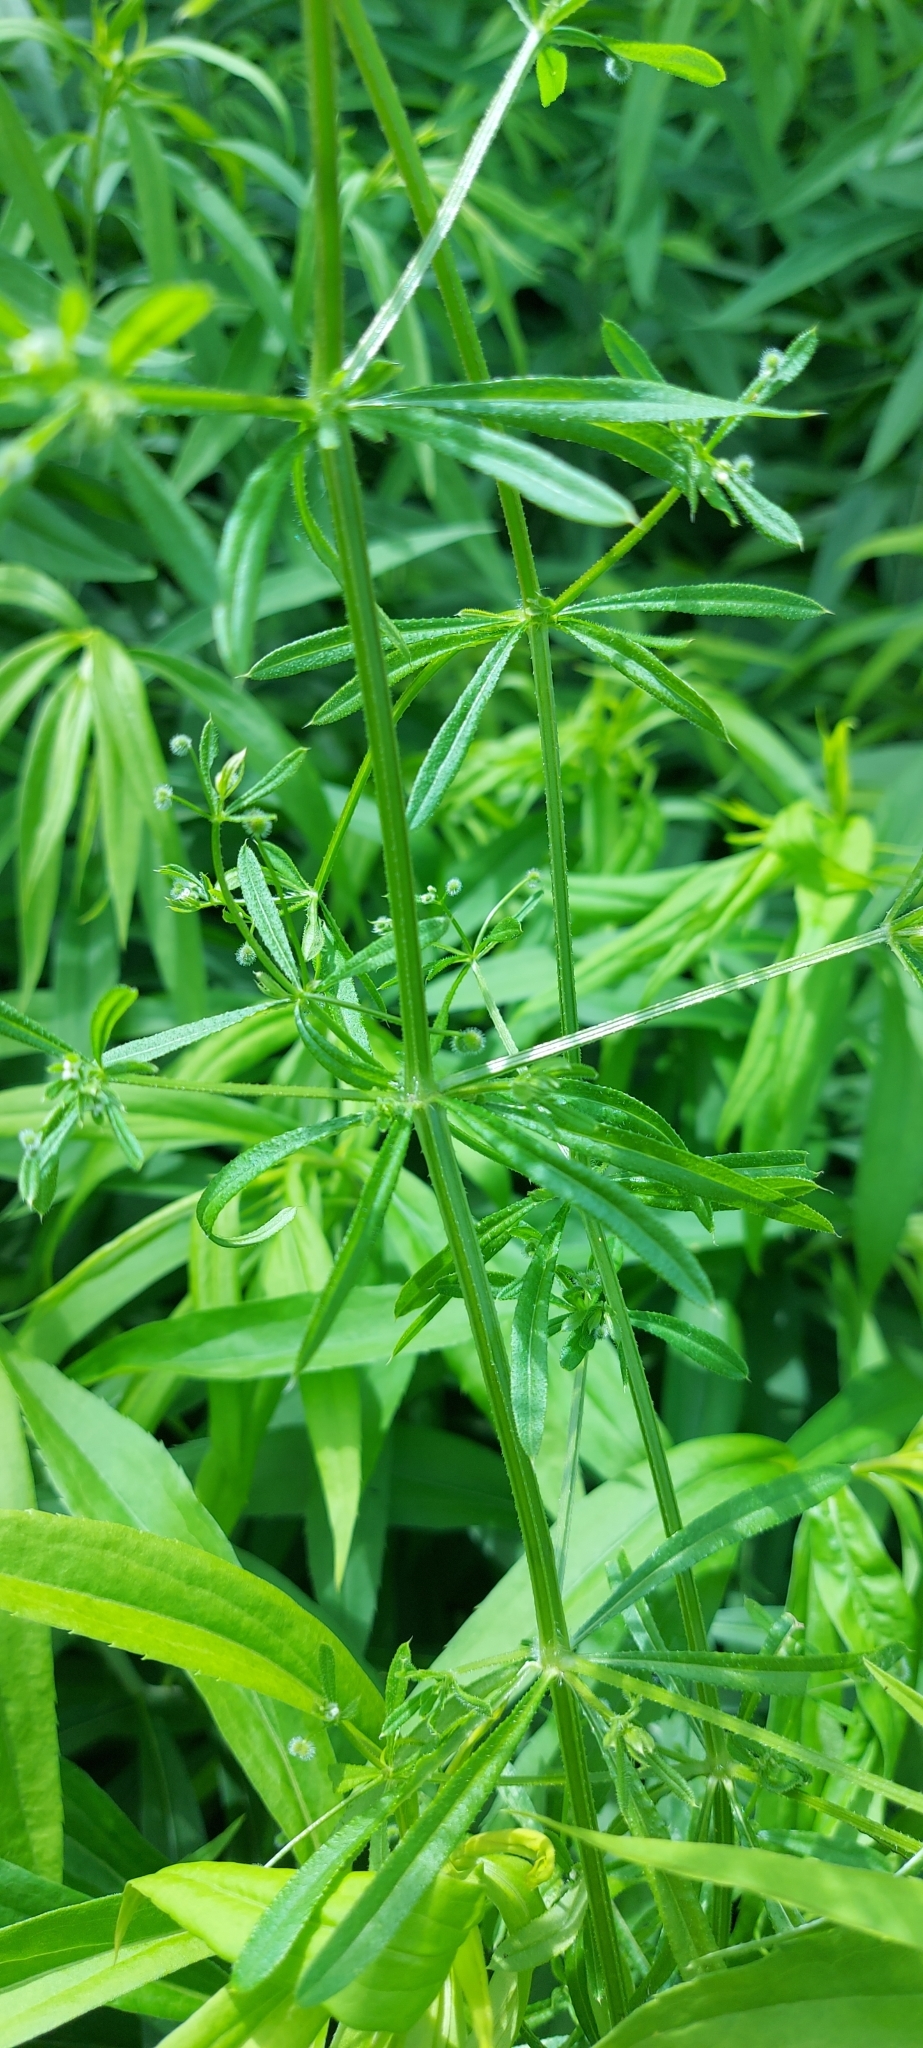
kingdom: Plantae
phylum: Tracheophyta
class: Magnoliopsida
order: Gentianales
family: Rubiaceae
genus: Galium
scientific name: Galium aparine
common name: Cleavers
